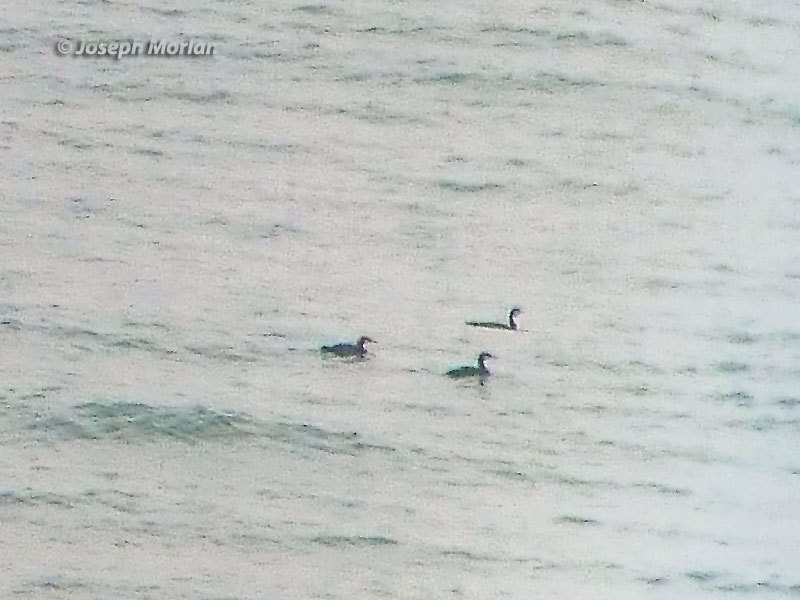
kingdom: Animalia
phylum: Chordata
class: Aves
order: Gaviiformes
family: Gaviidae
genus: Gavia
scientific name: Gavia pacifica
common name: Pacific loon
